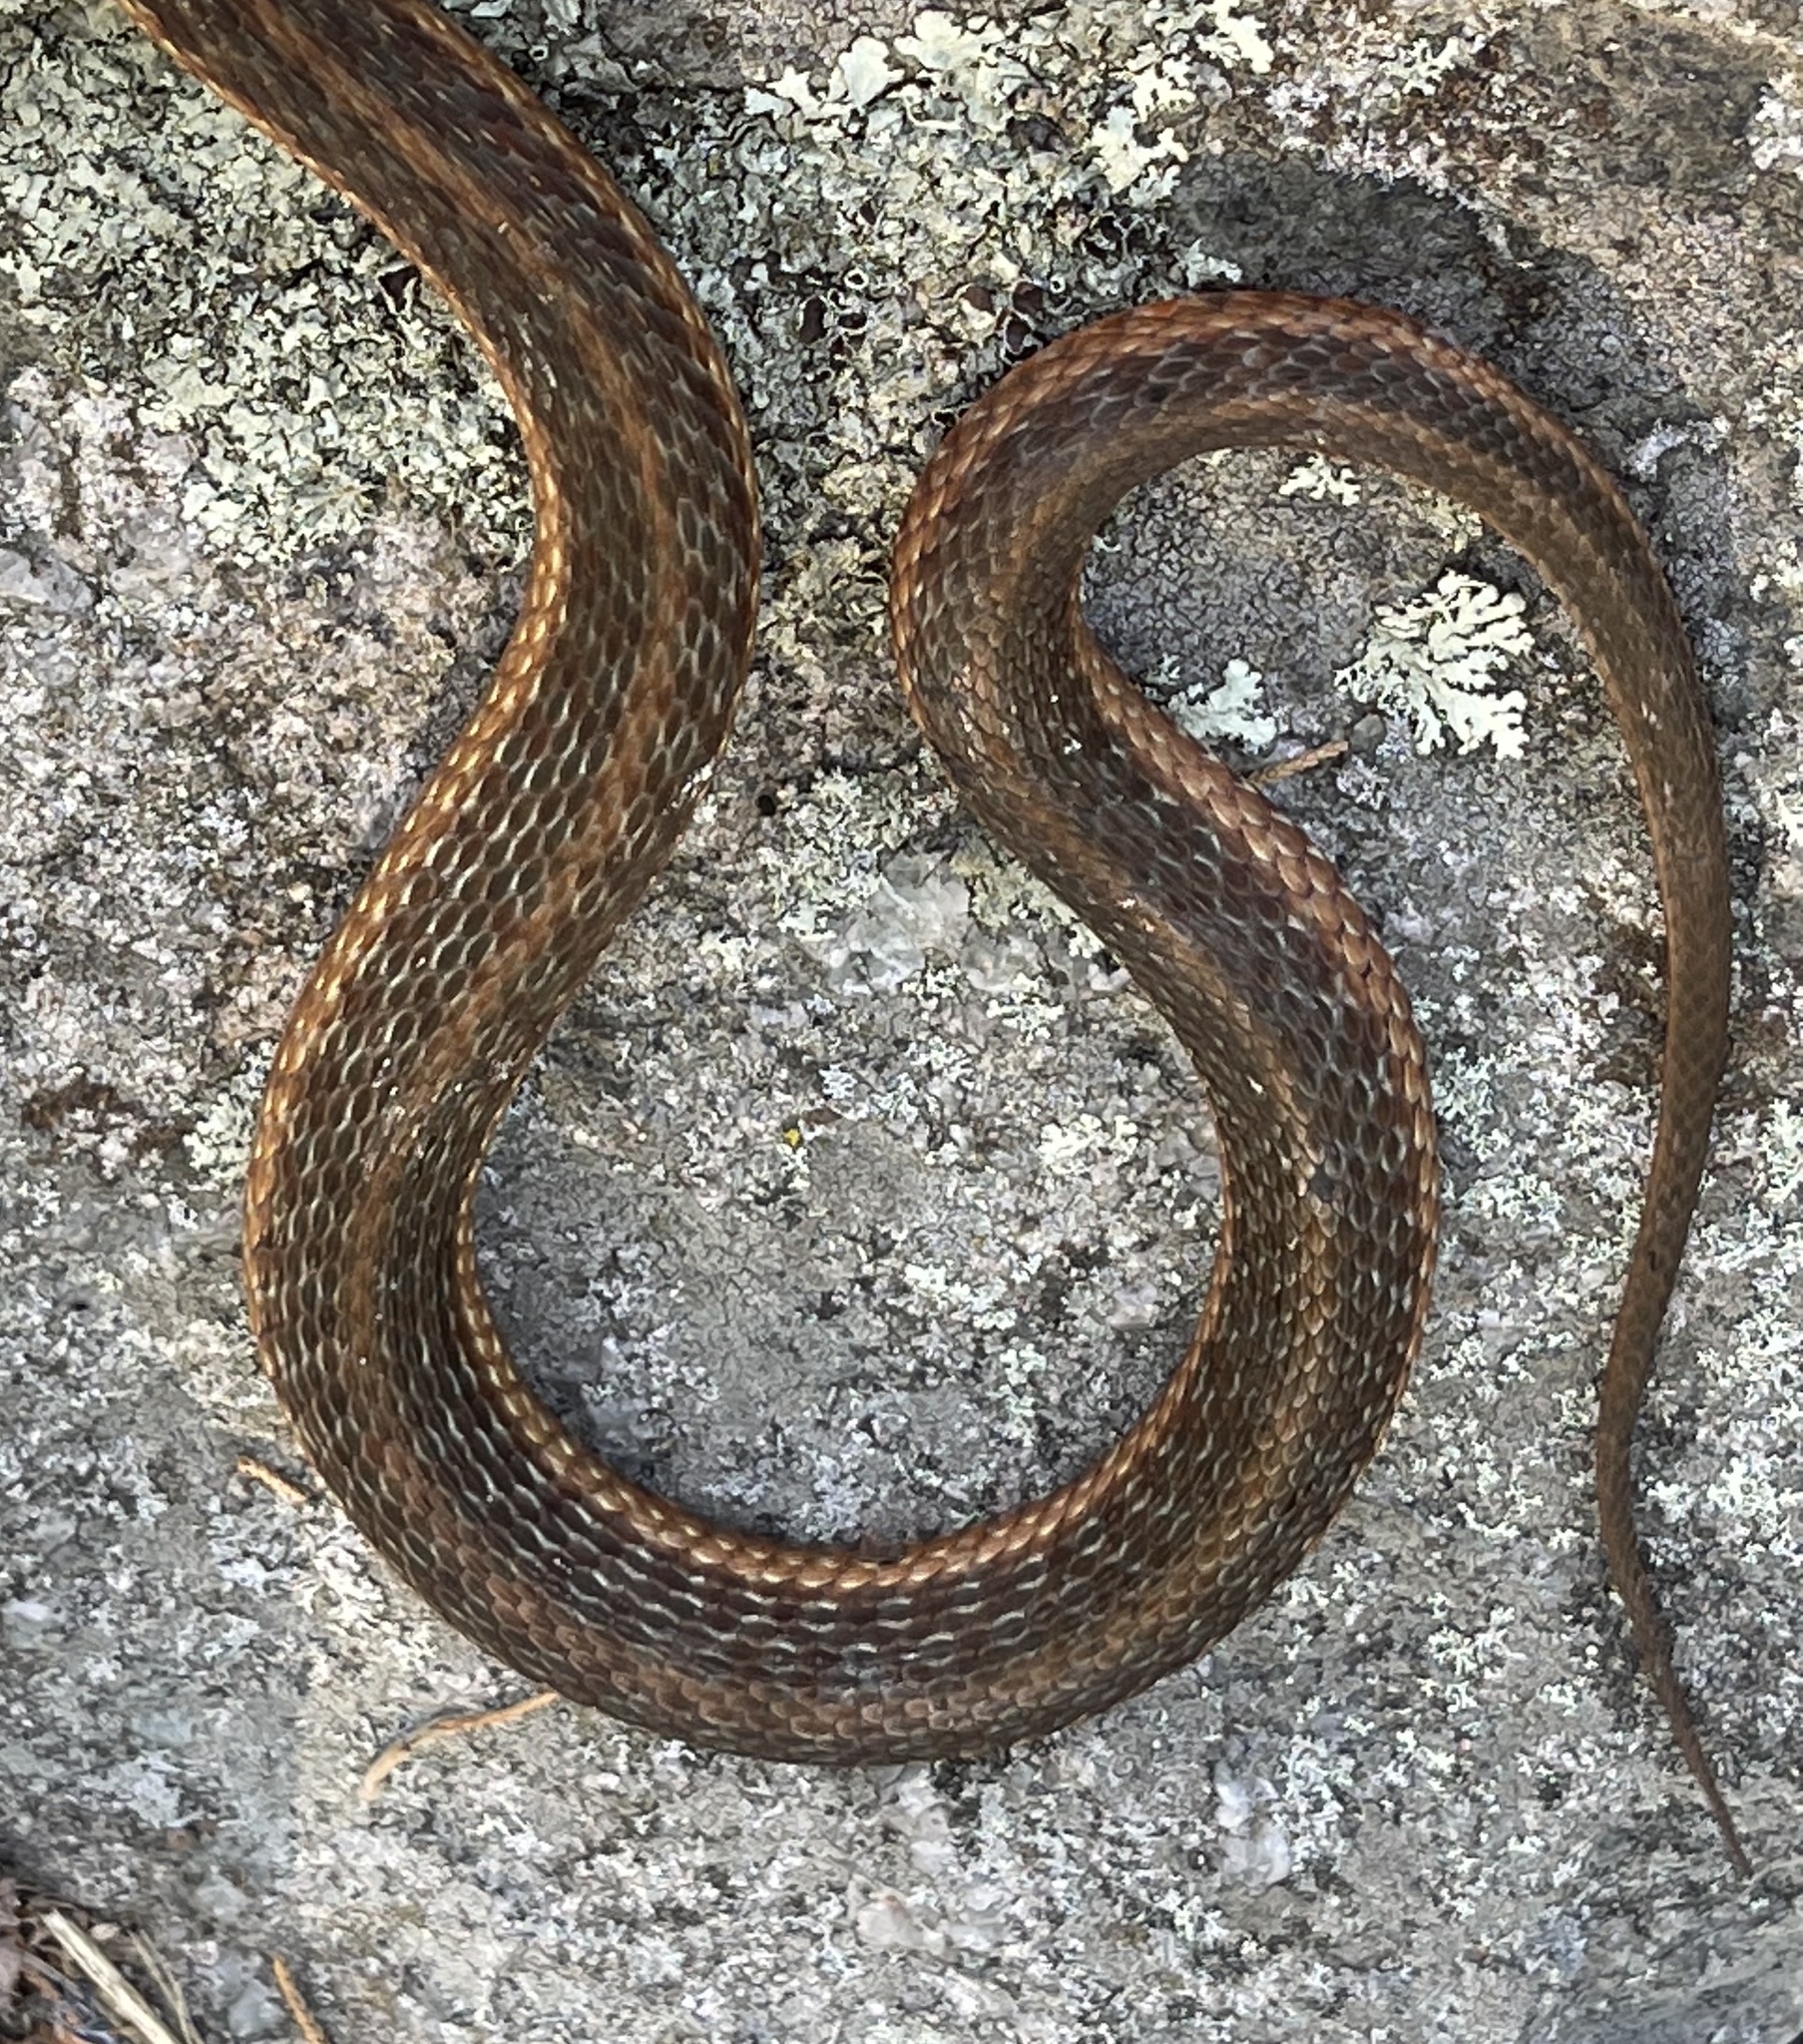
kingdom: Animalia
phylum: Chordata
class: Squamata
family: Colubridae
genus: Thamnophis
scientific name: Thamnophis sirtalis
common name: Common garter snake
